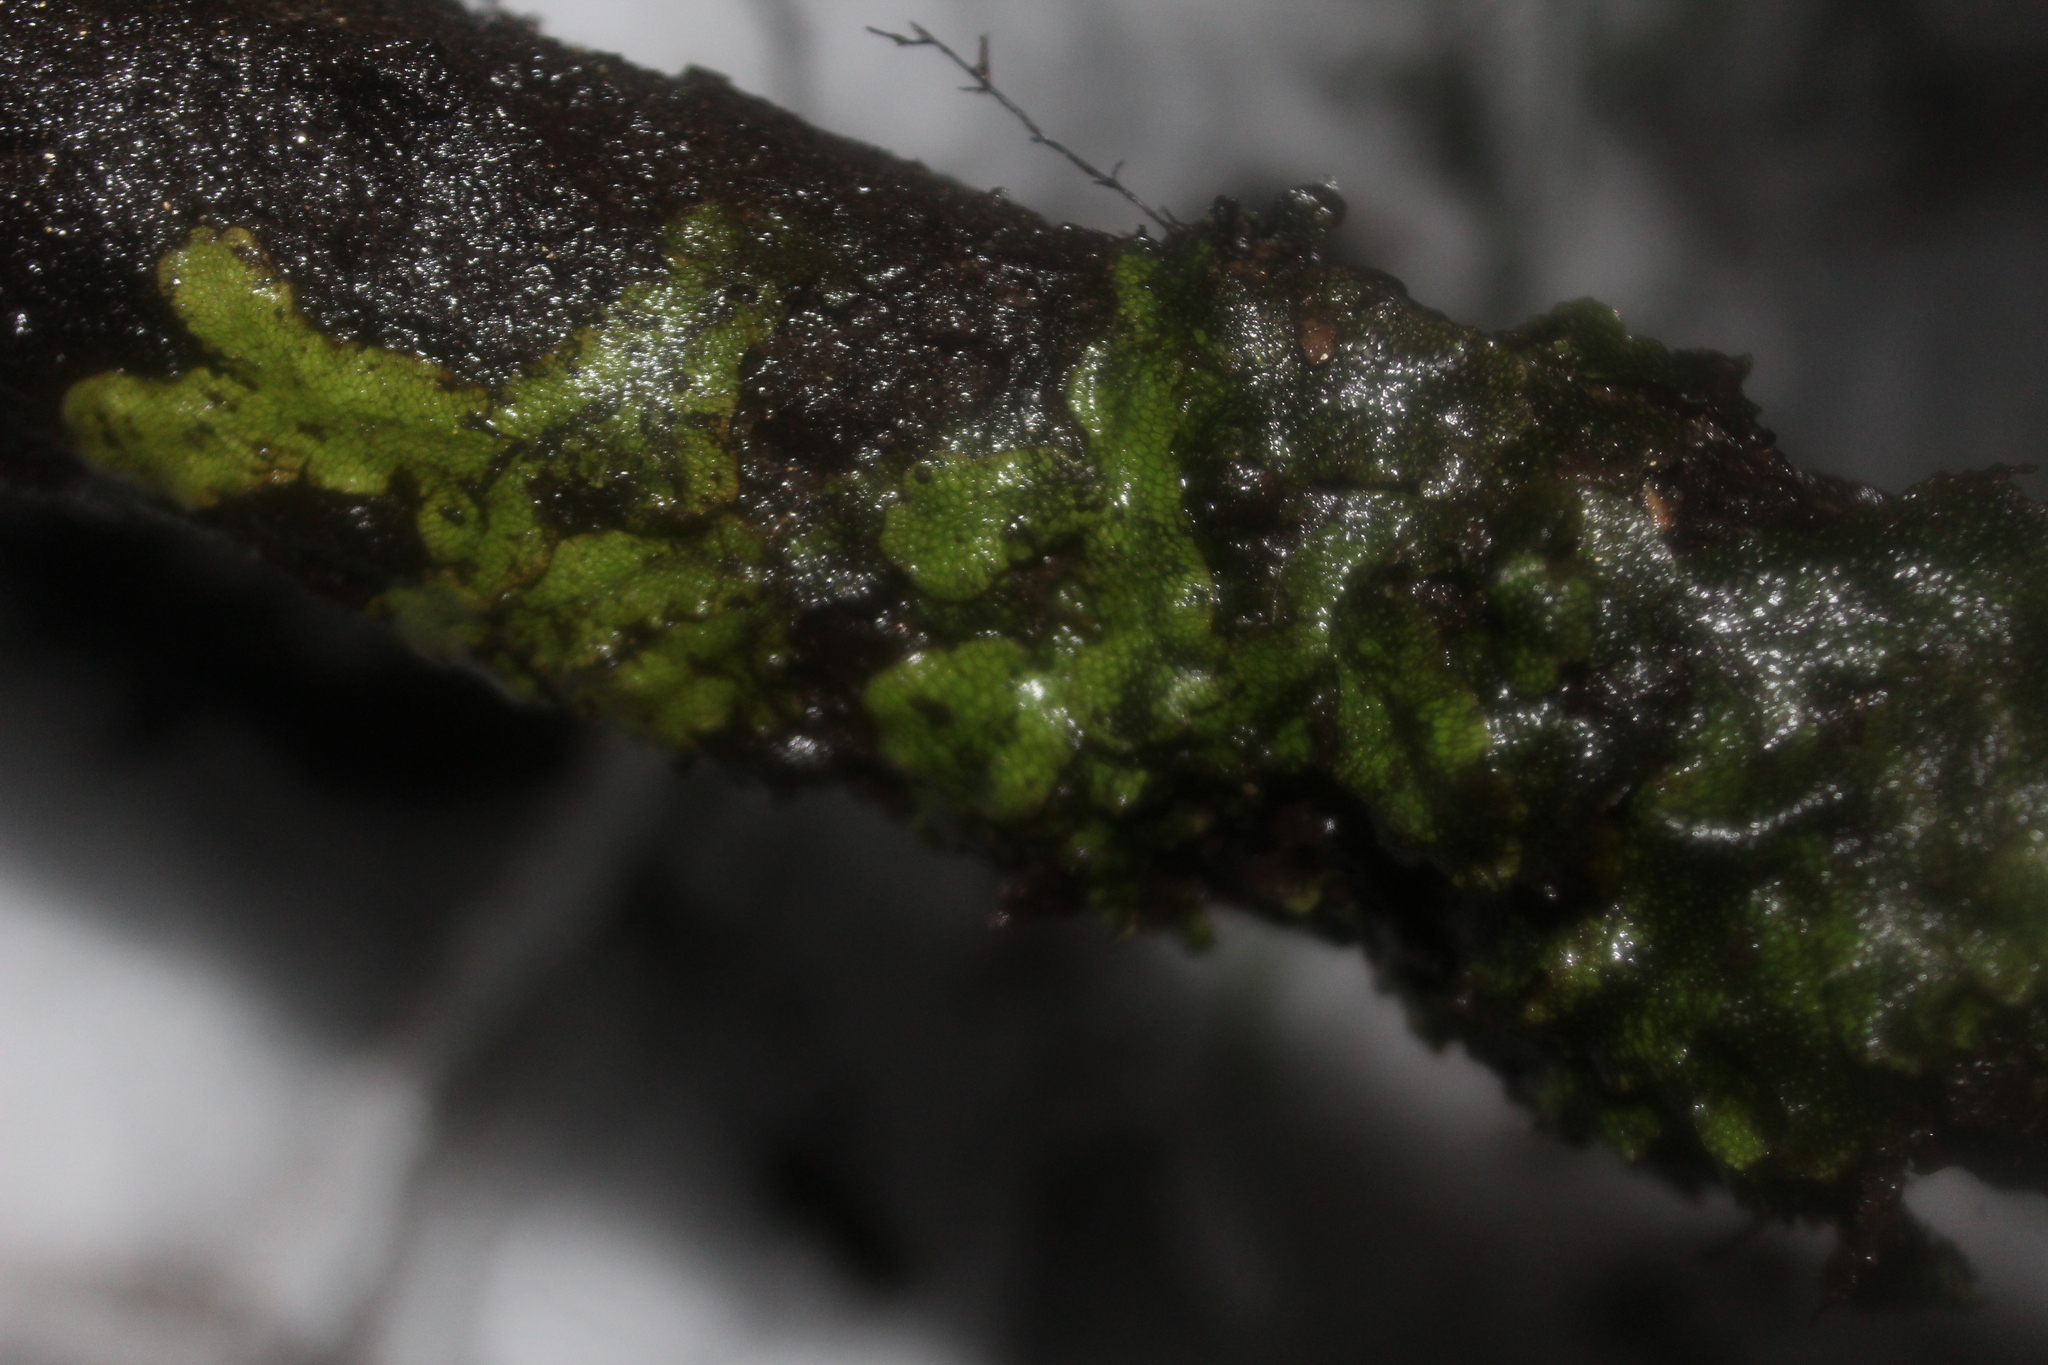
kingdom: Plantae
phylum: Marchantiophyta
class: Marchantiopsida
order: Marchantiales
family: Conocephalaceae
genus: Conocephalum
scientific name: Conocephalum salebrosum
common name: Cat-tongue liverwort
